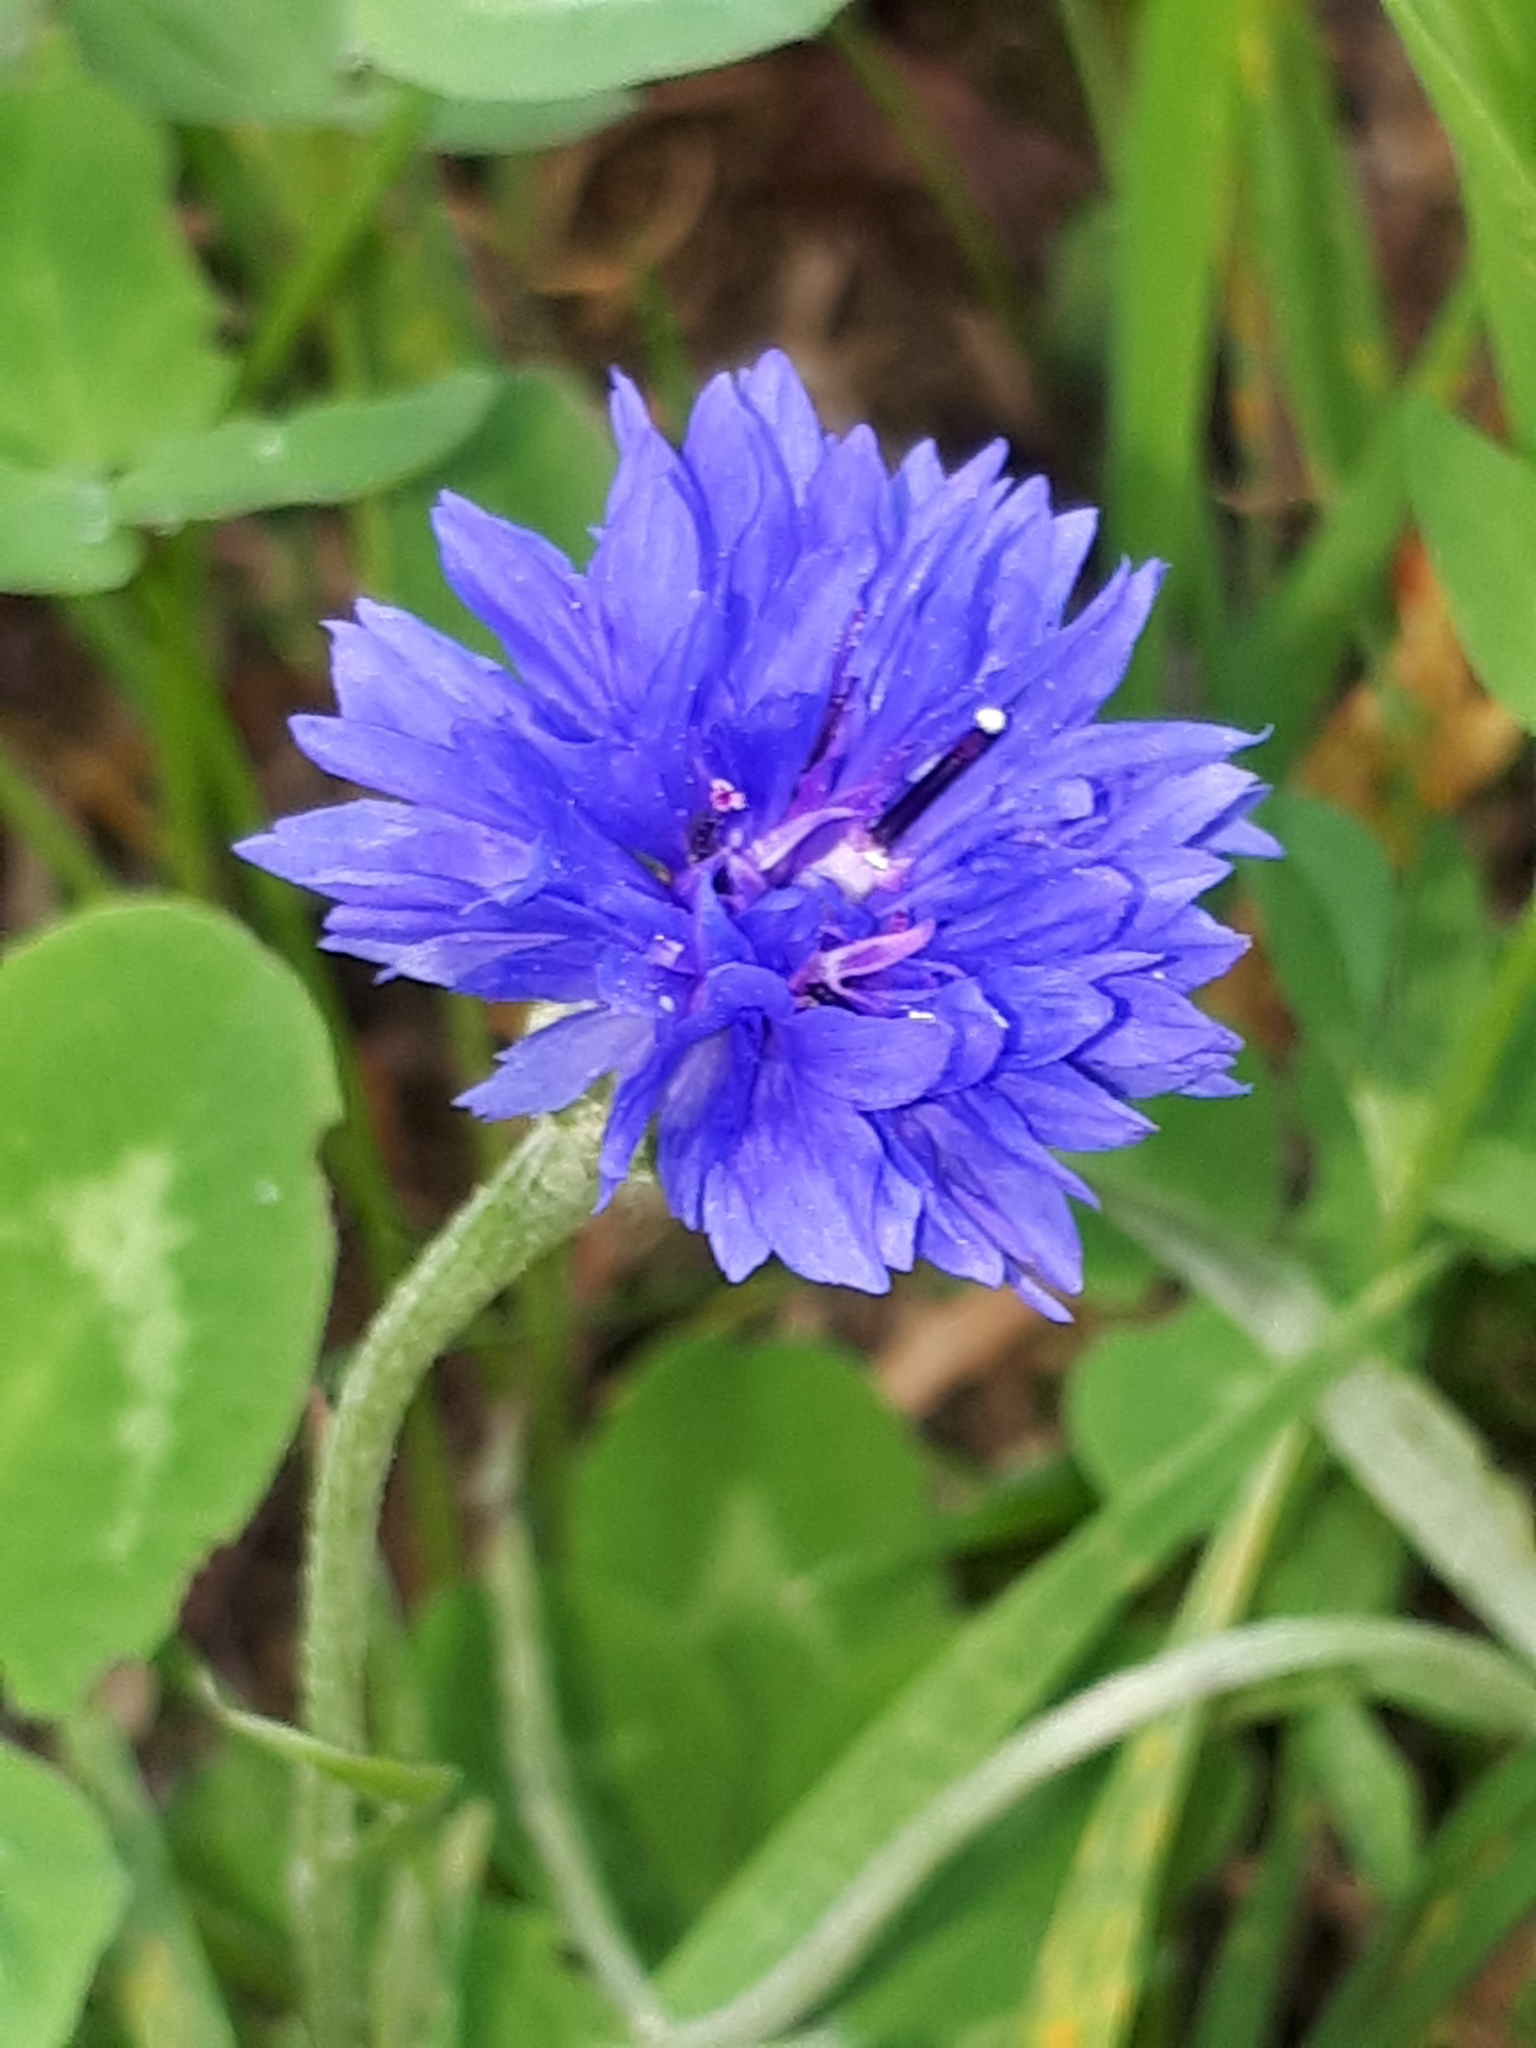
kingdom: Plantae
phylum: Tracheophyta
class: Magnoliopsida
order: Asterales
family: Asteraceae
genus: Centaurea
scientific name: Centaurea cyanus
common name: Cornflower
